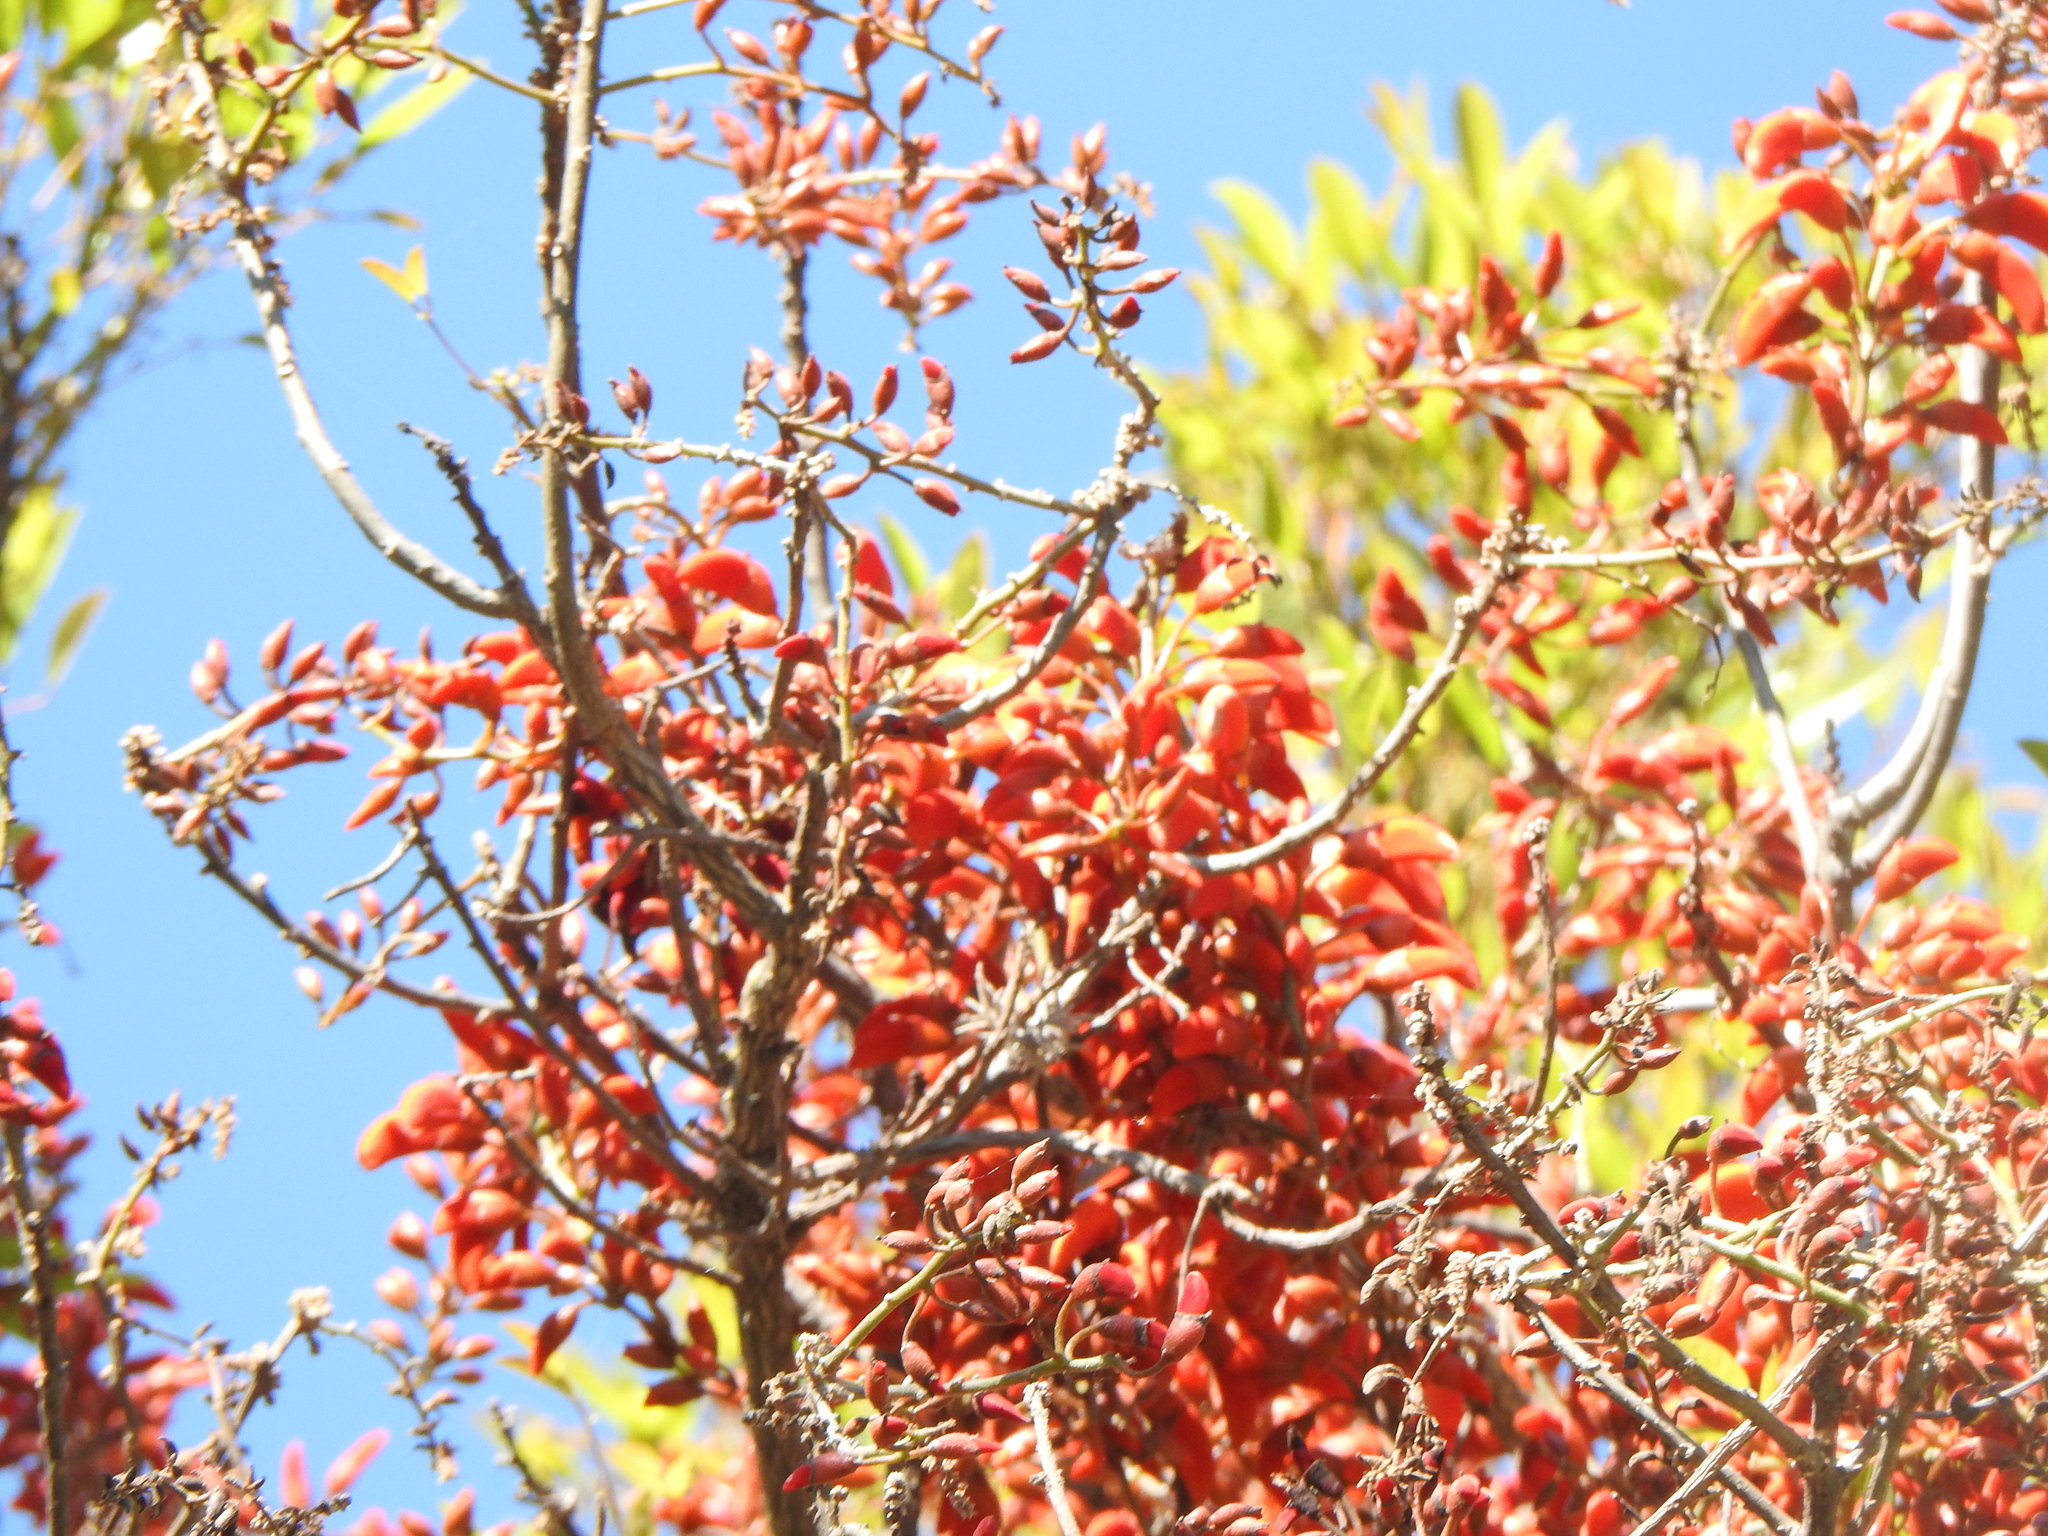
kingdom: Plantae
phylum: Tracheophyta
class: Magnoliopsida
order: Fabales
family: Fabaceae
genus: Erythrina
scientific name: Erythrina falcata
